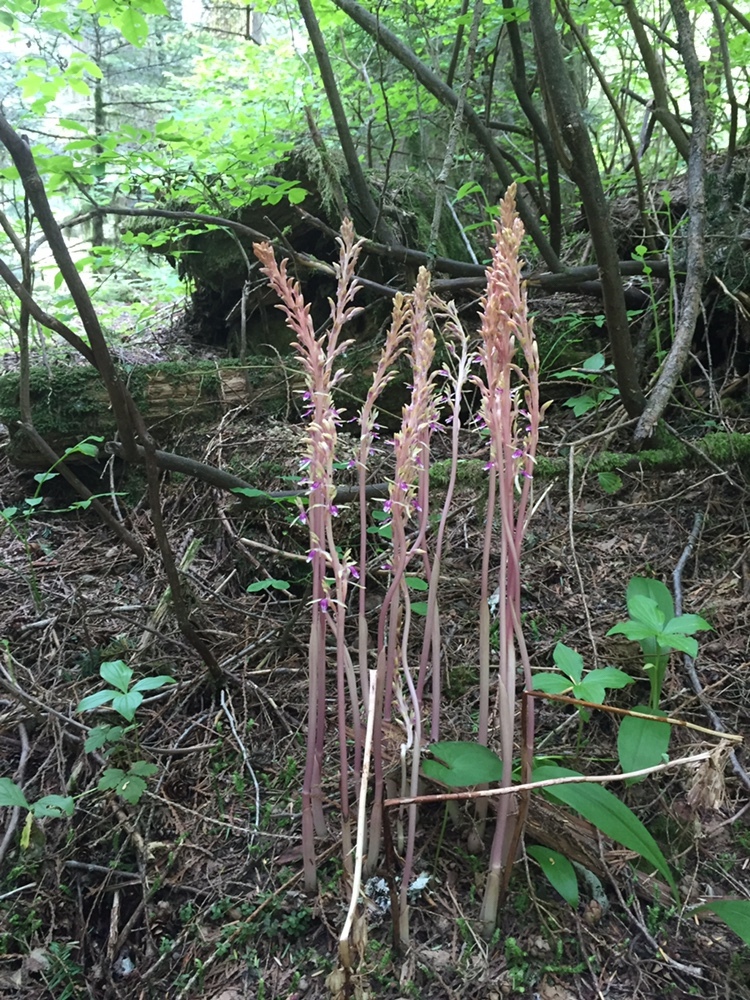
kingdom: Plantae
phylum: Tracheophyta
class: Liliopsida
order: Asparagales
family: Orchidaceae
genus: Corallorhiza
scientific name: Corallorhiza mertensiana
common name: Pacific coralroot
